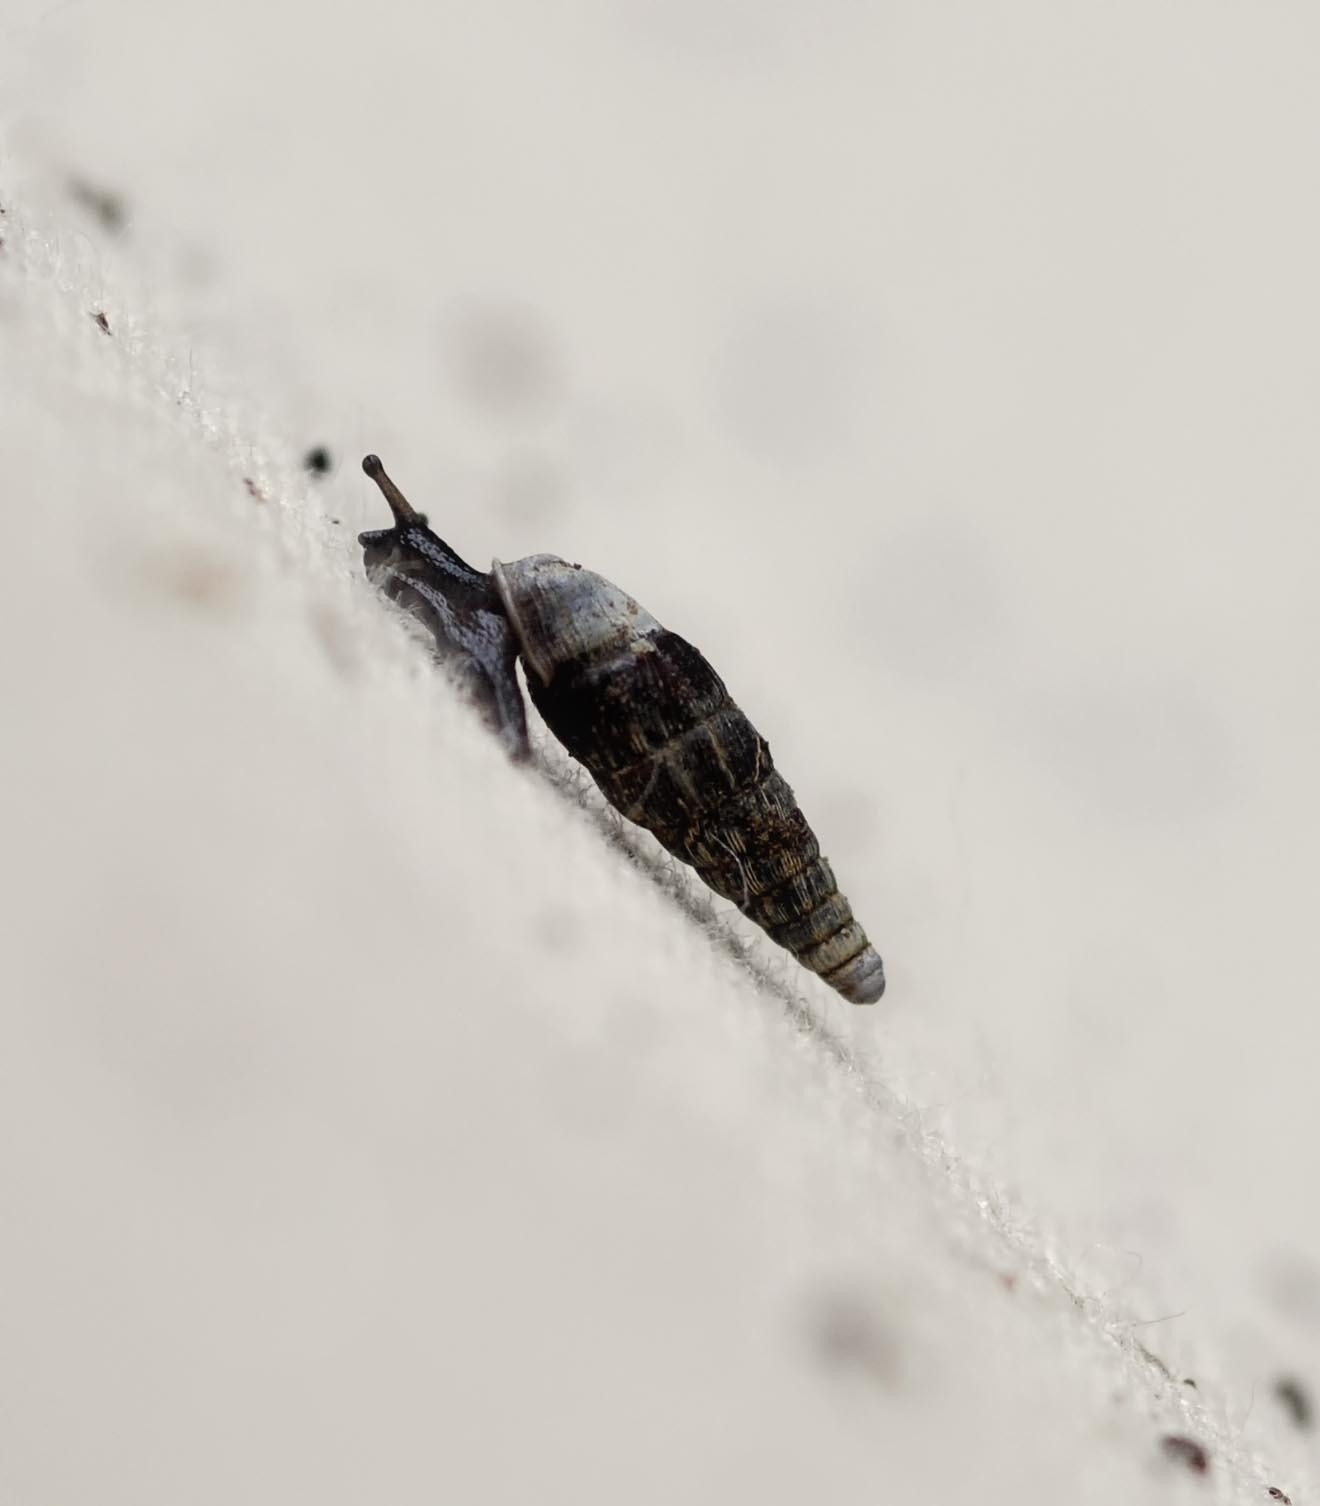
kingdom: Animalia
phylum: Mollusca
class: Gastropoda
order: Stylommatophora
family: Clausiliidae
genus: Clausilia
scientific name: Clausilia bidentata
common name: Two-toothed door snail
